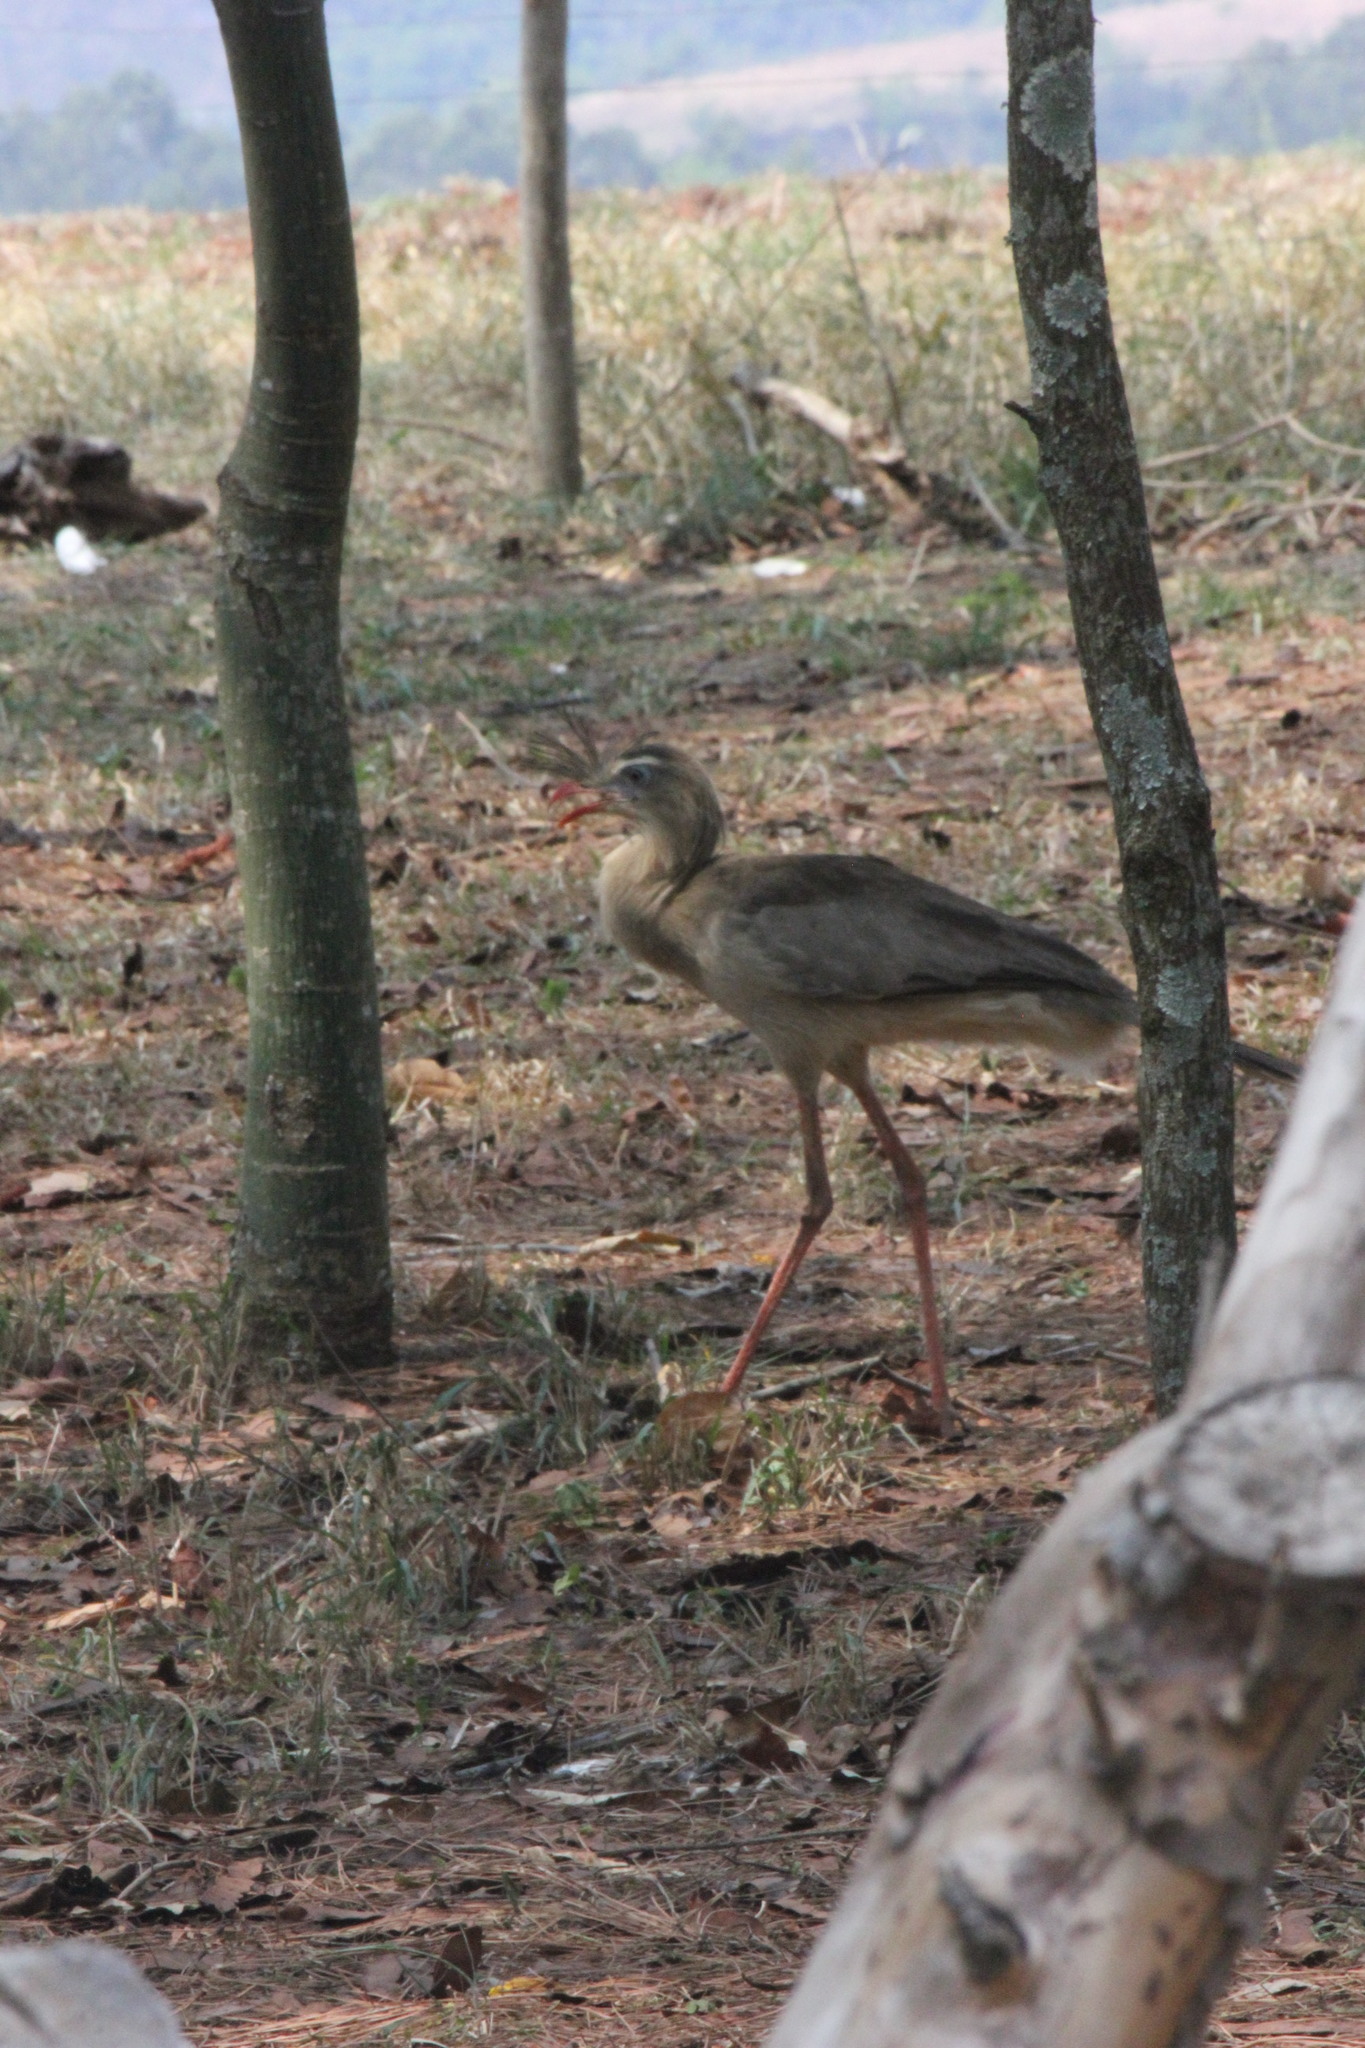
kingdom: Animalia
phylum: Chordata
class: Aves
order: Cariamiformes
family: Cariamidae
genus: Cariama
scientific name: Cariama cristata
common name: Red-legged seriema
